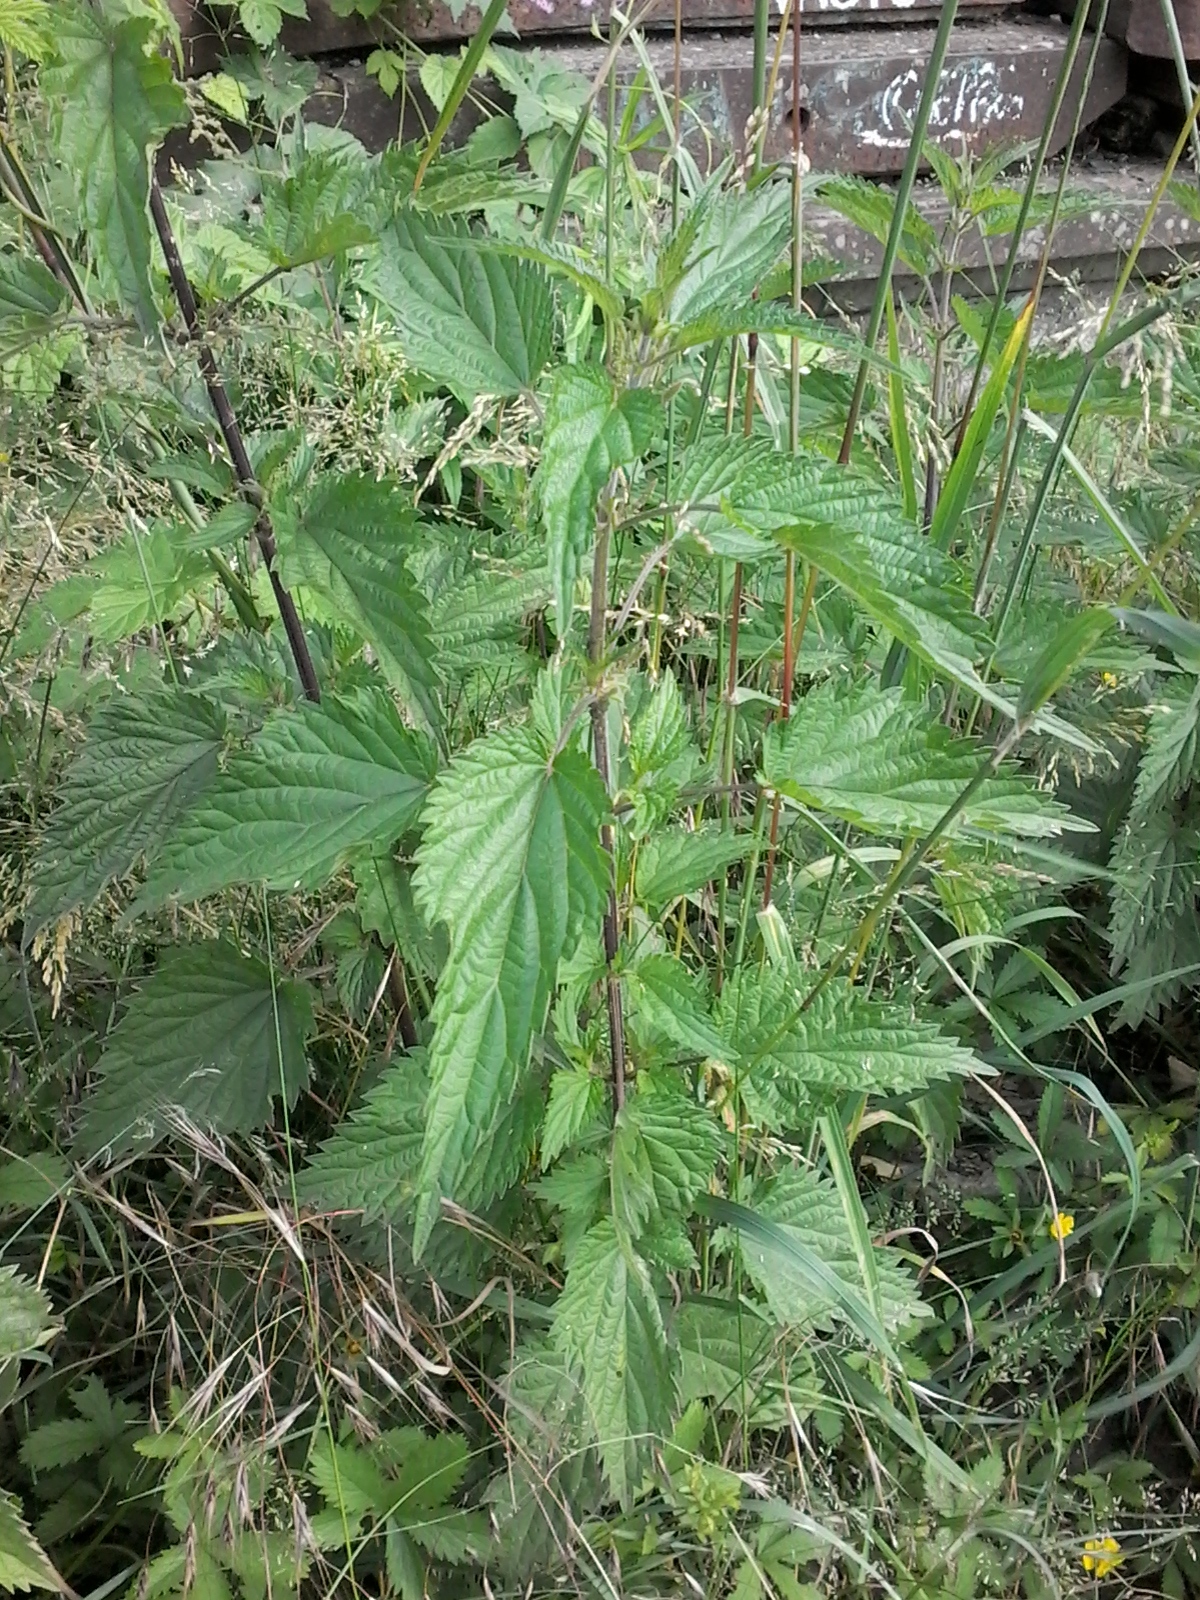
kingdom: Plantae
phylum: Tracheophyta
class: Magnoliopsida
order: Rosales
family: Urticaceae
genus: Urtica
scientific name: Urtica dioica
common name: Common nettle
